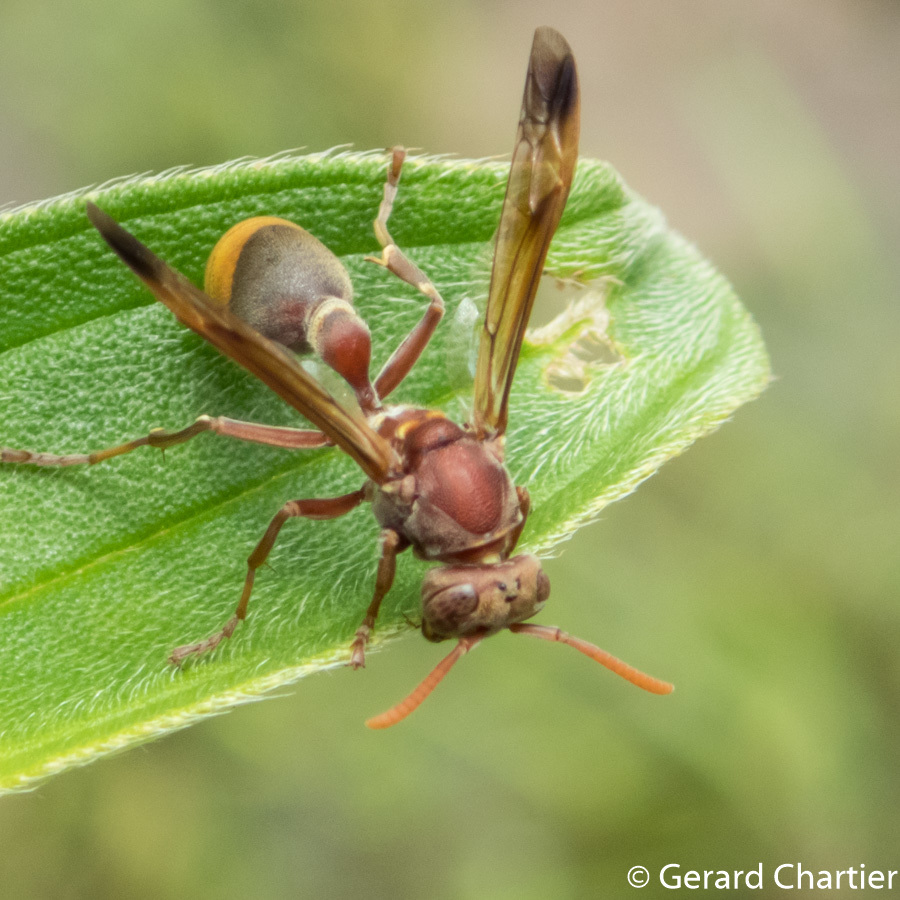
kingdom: Animalia
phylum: Arthropoda
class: Insecta
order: Hymenoptera
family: Vespidae
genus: Ropalidia
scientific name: Ropalidia marginata
